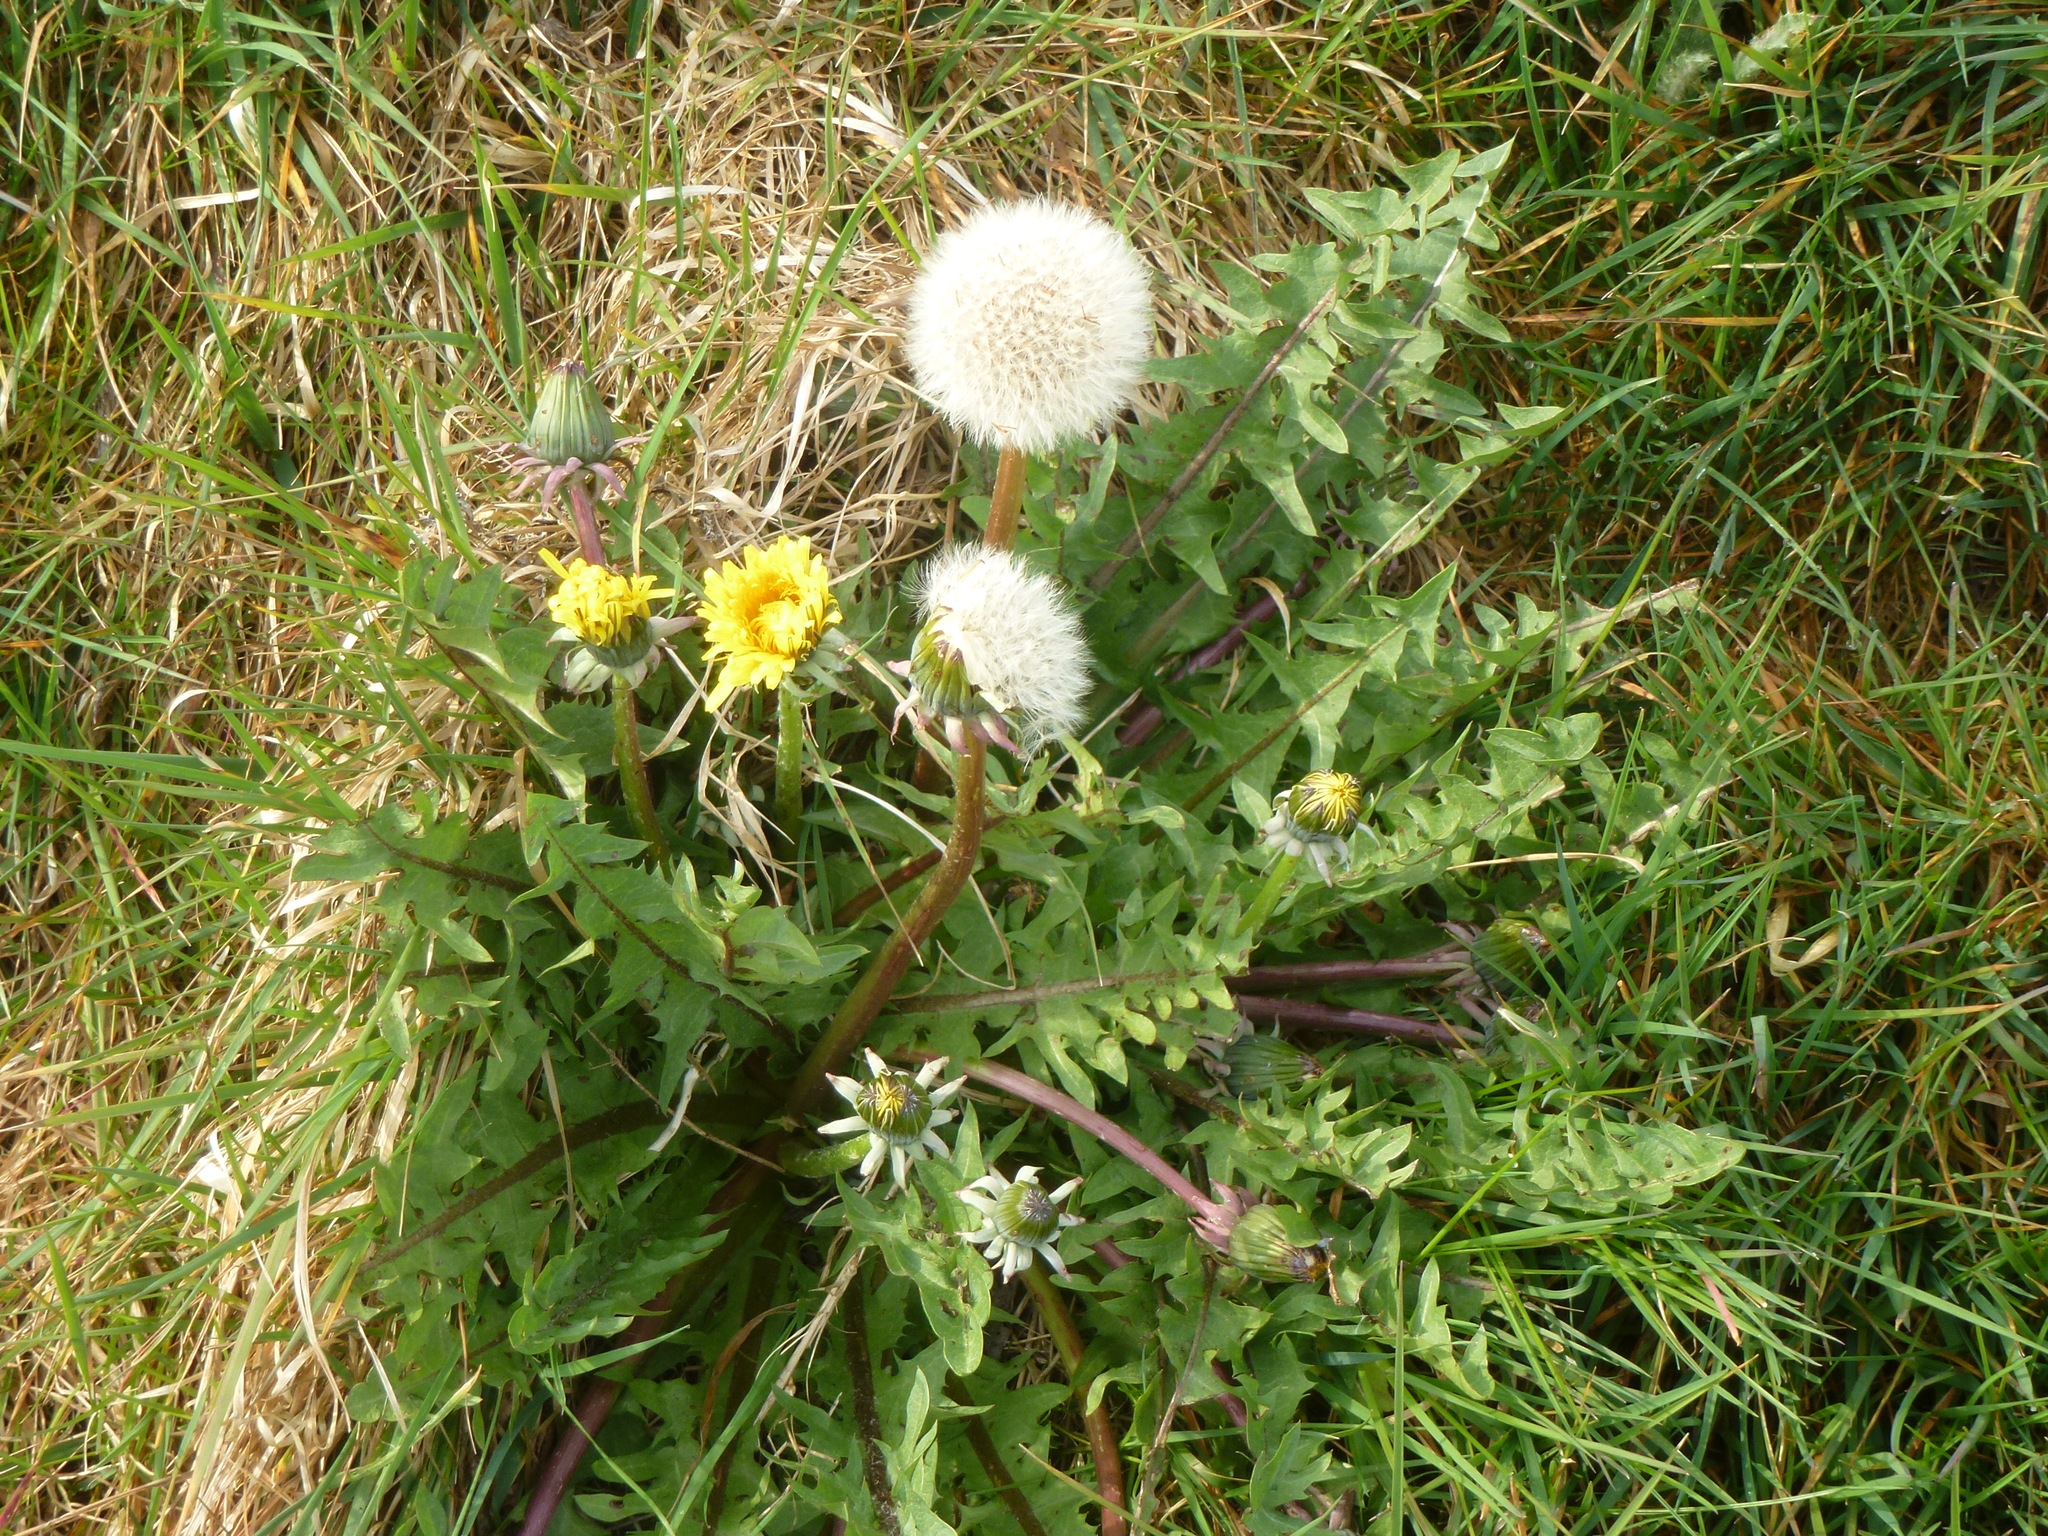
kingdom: Plantae
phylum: Tracheophyta
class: Magnoliopsida
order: Asterales
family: Asteraceae
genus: Taraxacum
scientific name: Taraxacum officinale
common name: Common dandelion
